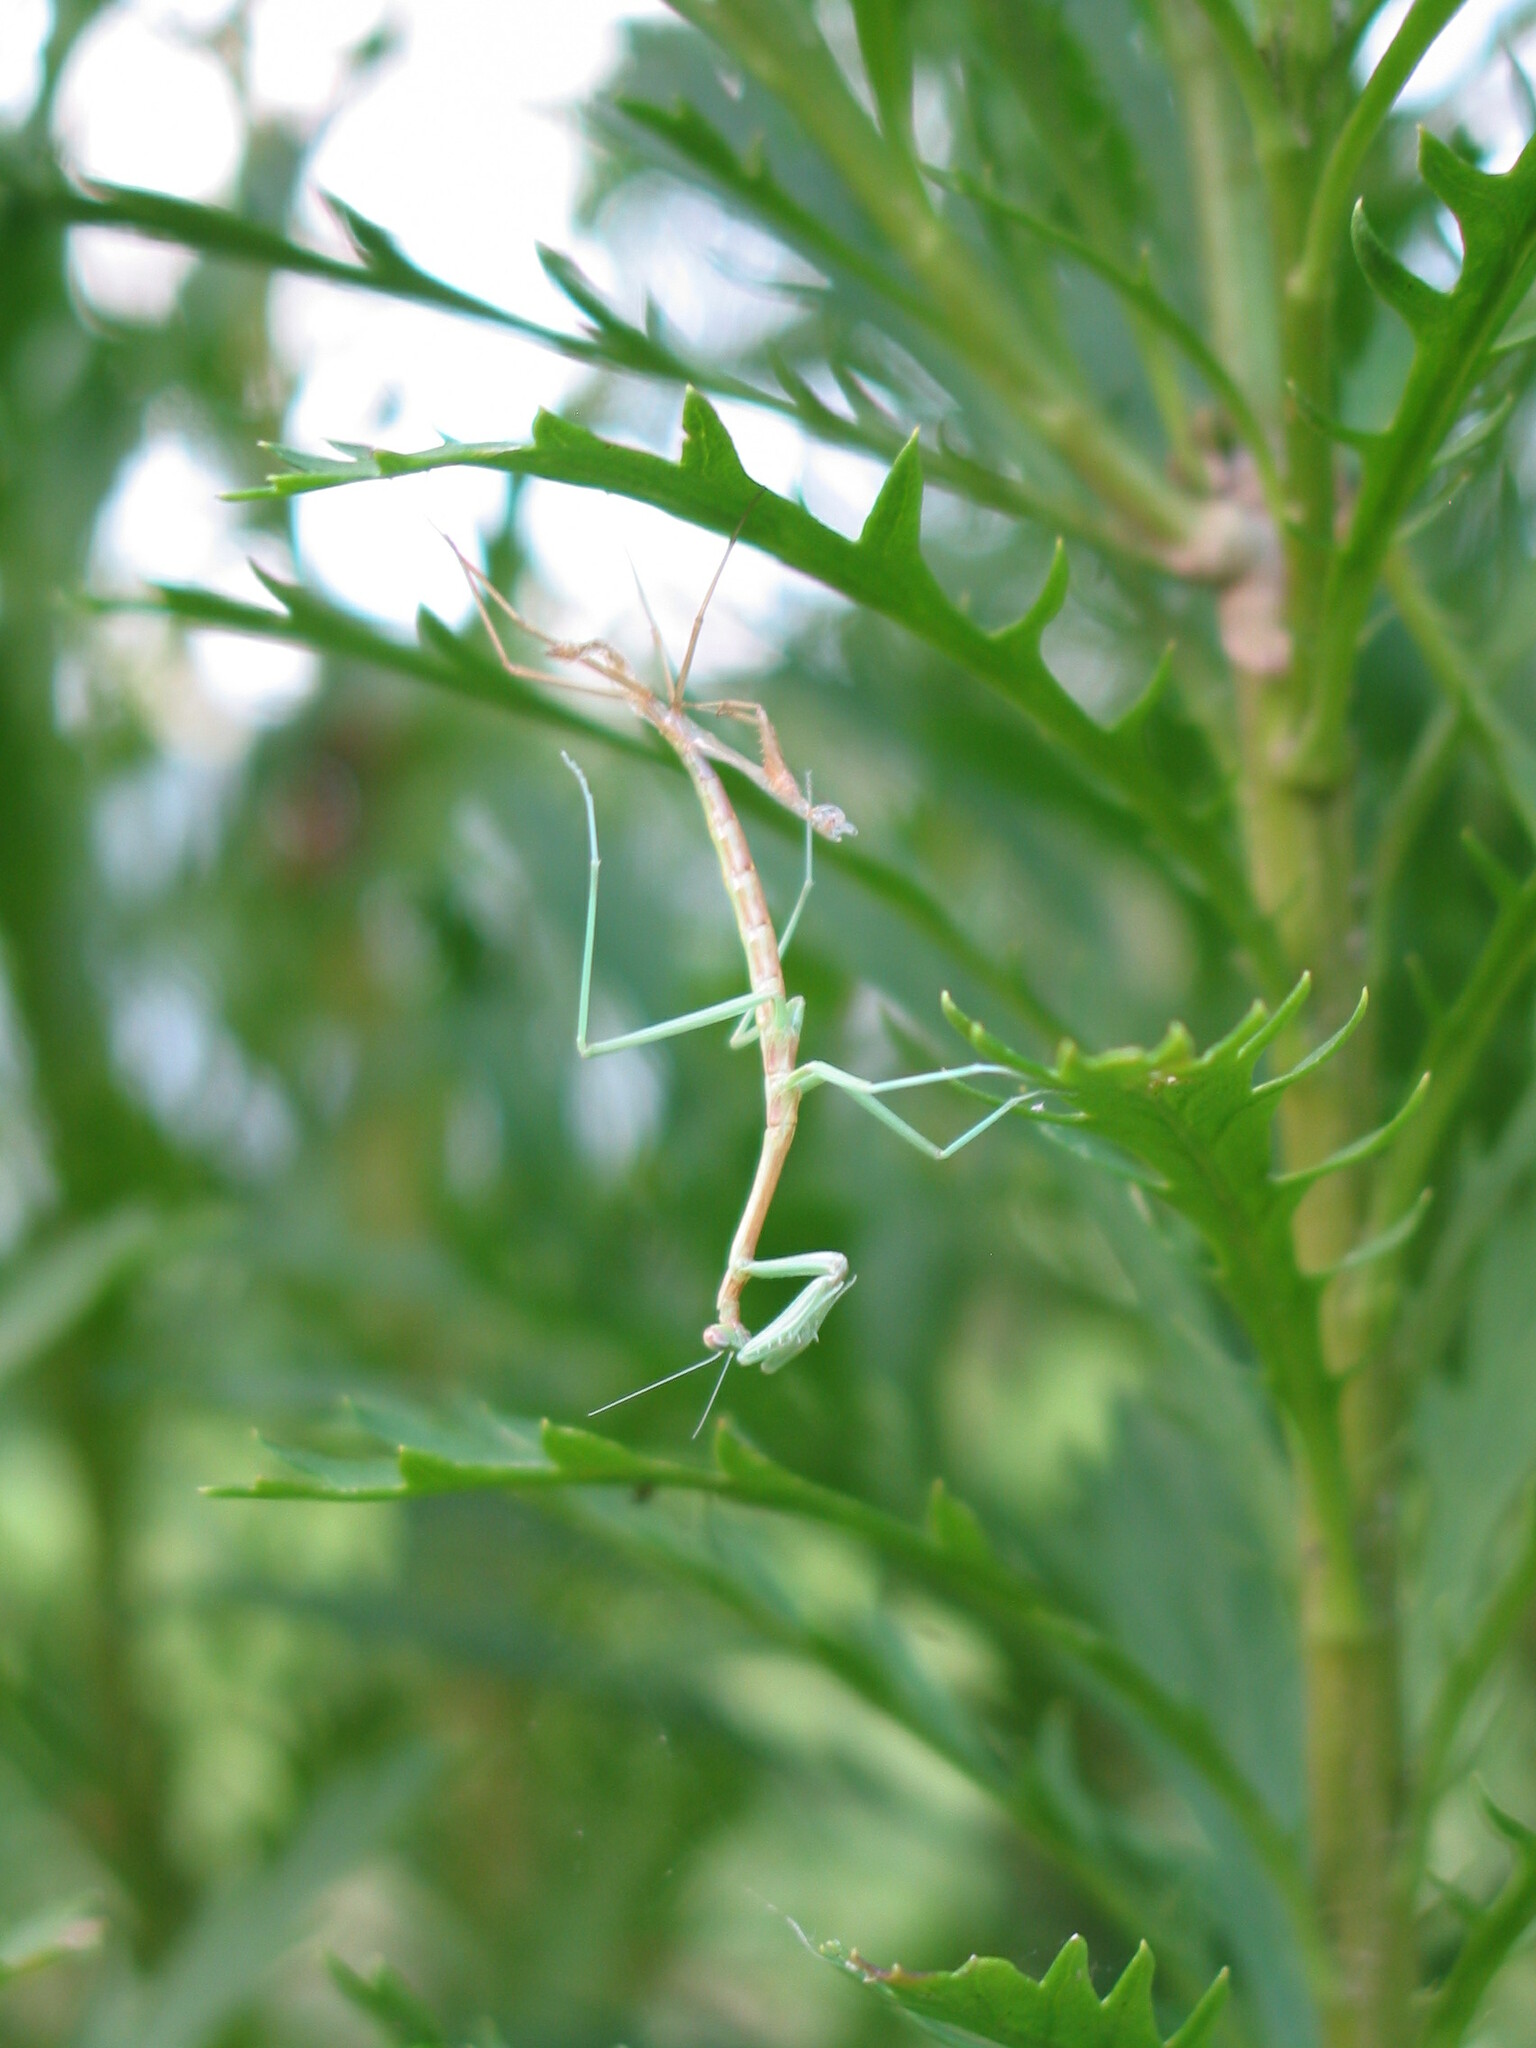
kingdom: Animalia
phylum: Arthropoda
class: Insecta
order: Mantodea
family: Mantidae
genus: Archimantis
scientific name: Archimantis latistyla
